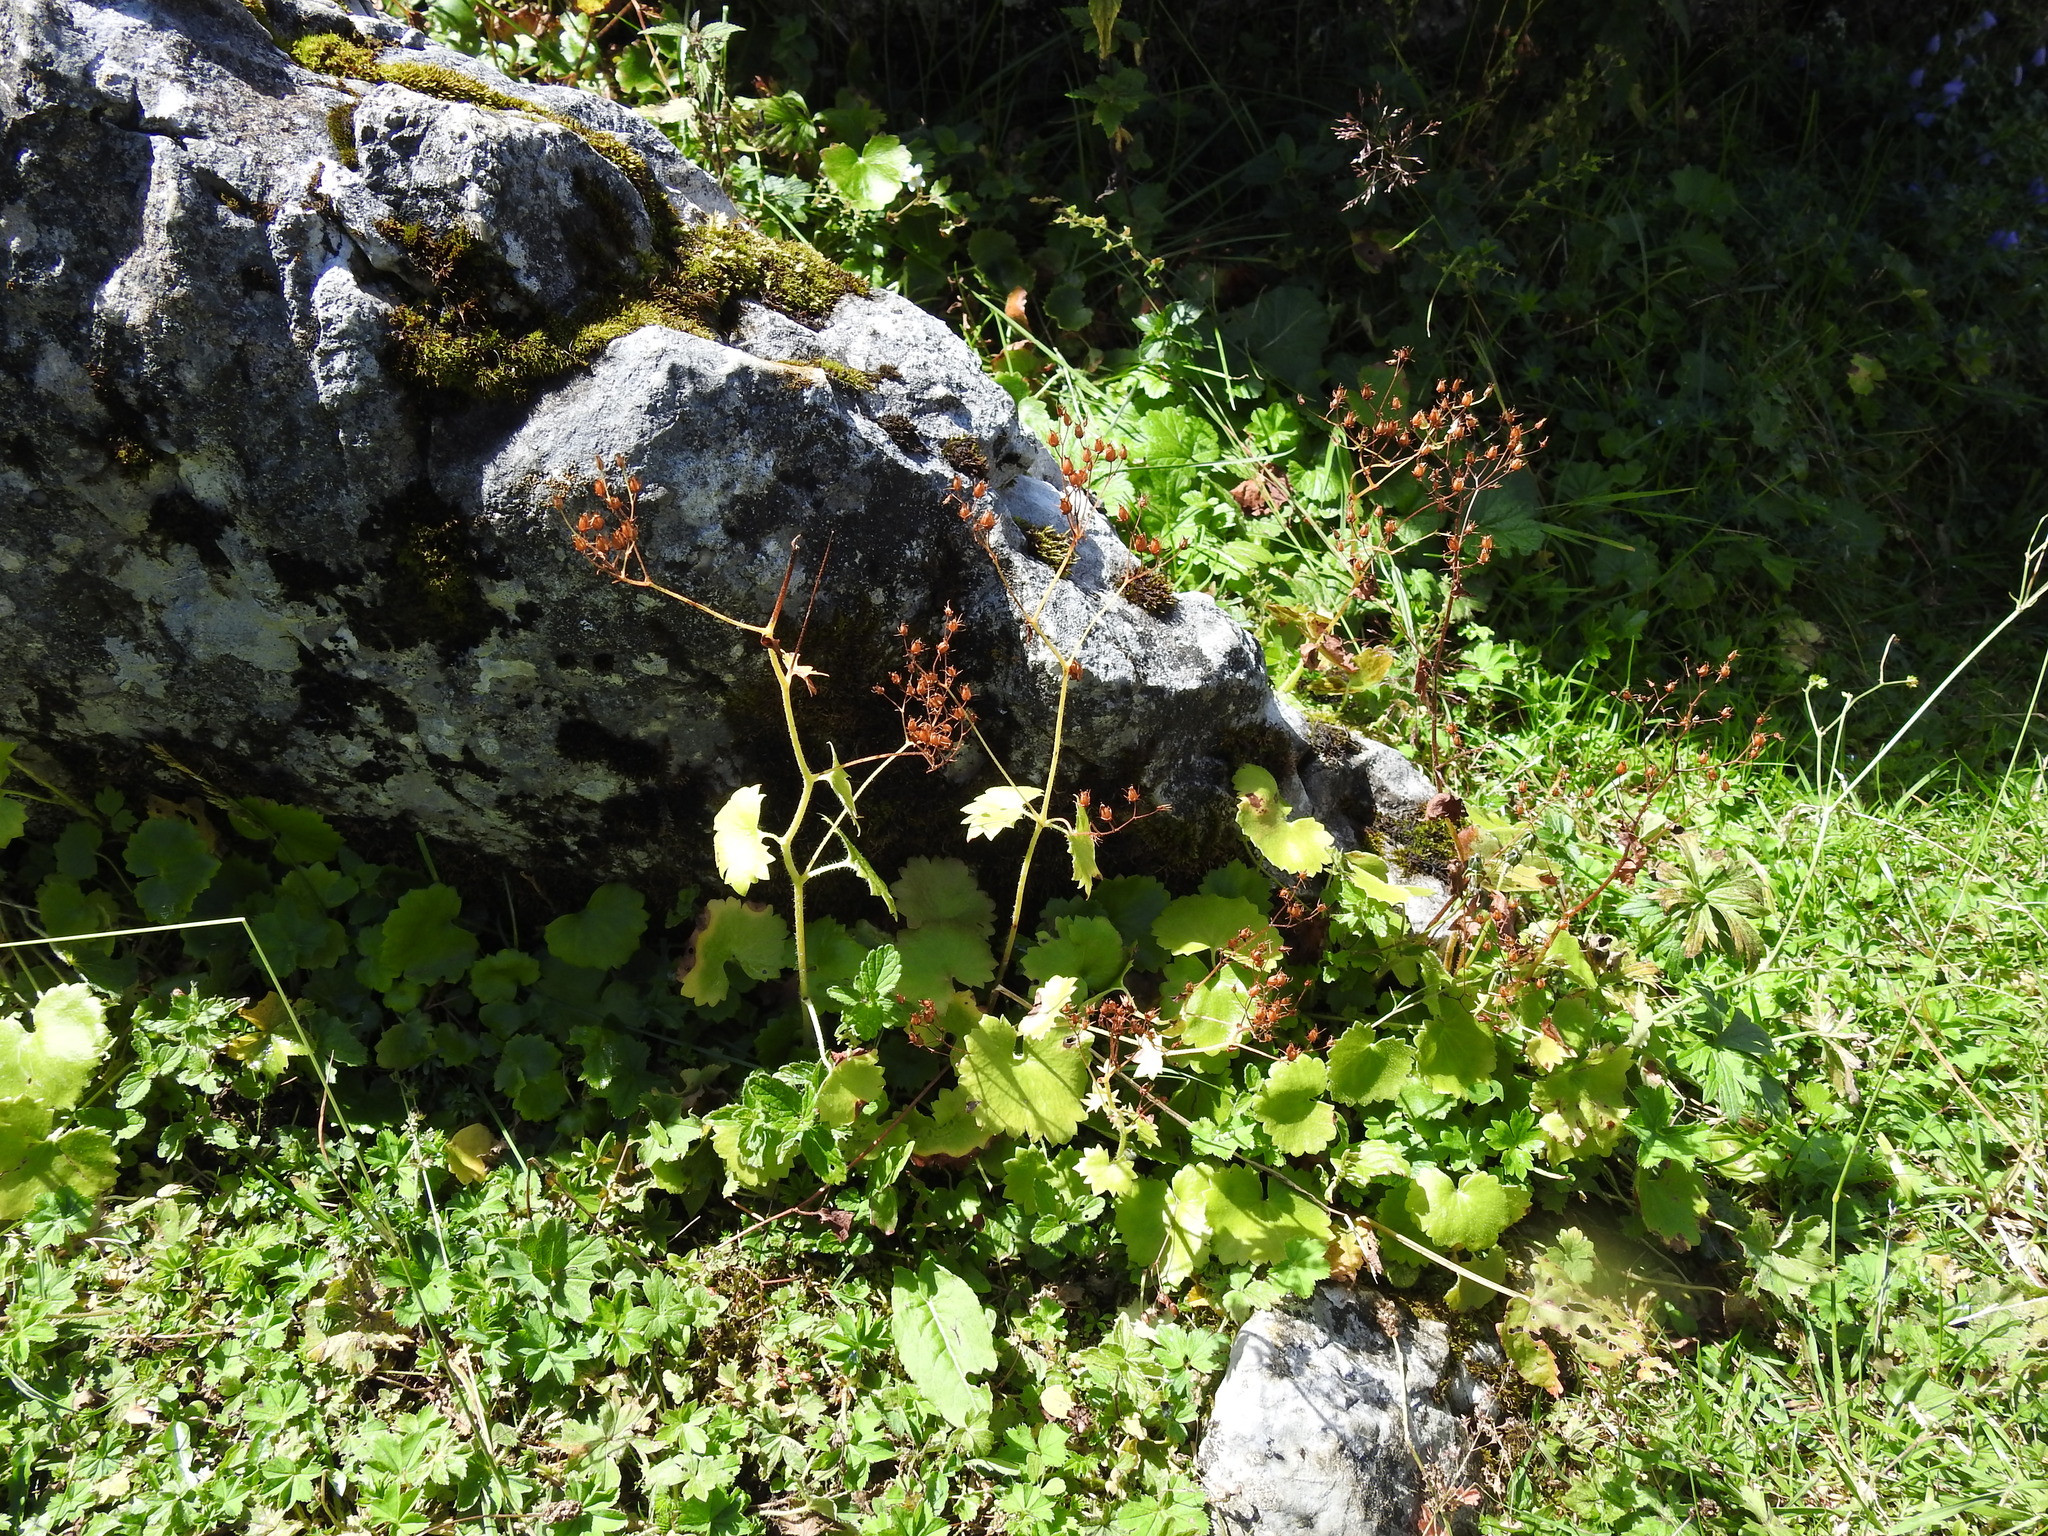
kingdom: Plantae
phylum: Tracheophyta
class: Magnoliopsida
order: Saxifragales
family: Saxifragaceae
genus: Saxifraga
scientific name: Saxifraga rotundifolia
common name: Round-leaved saxifrage
